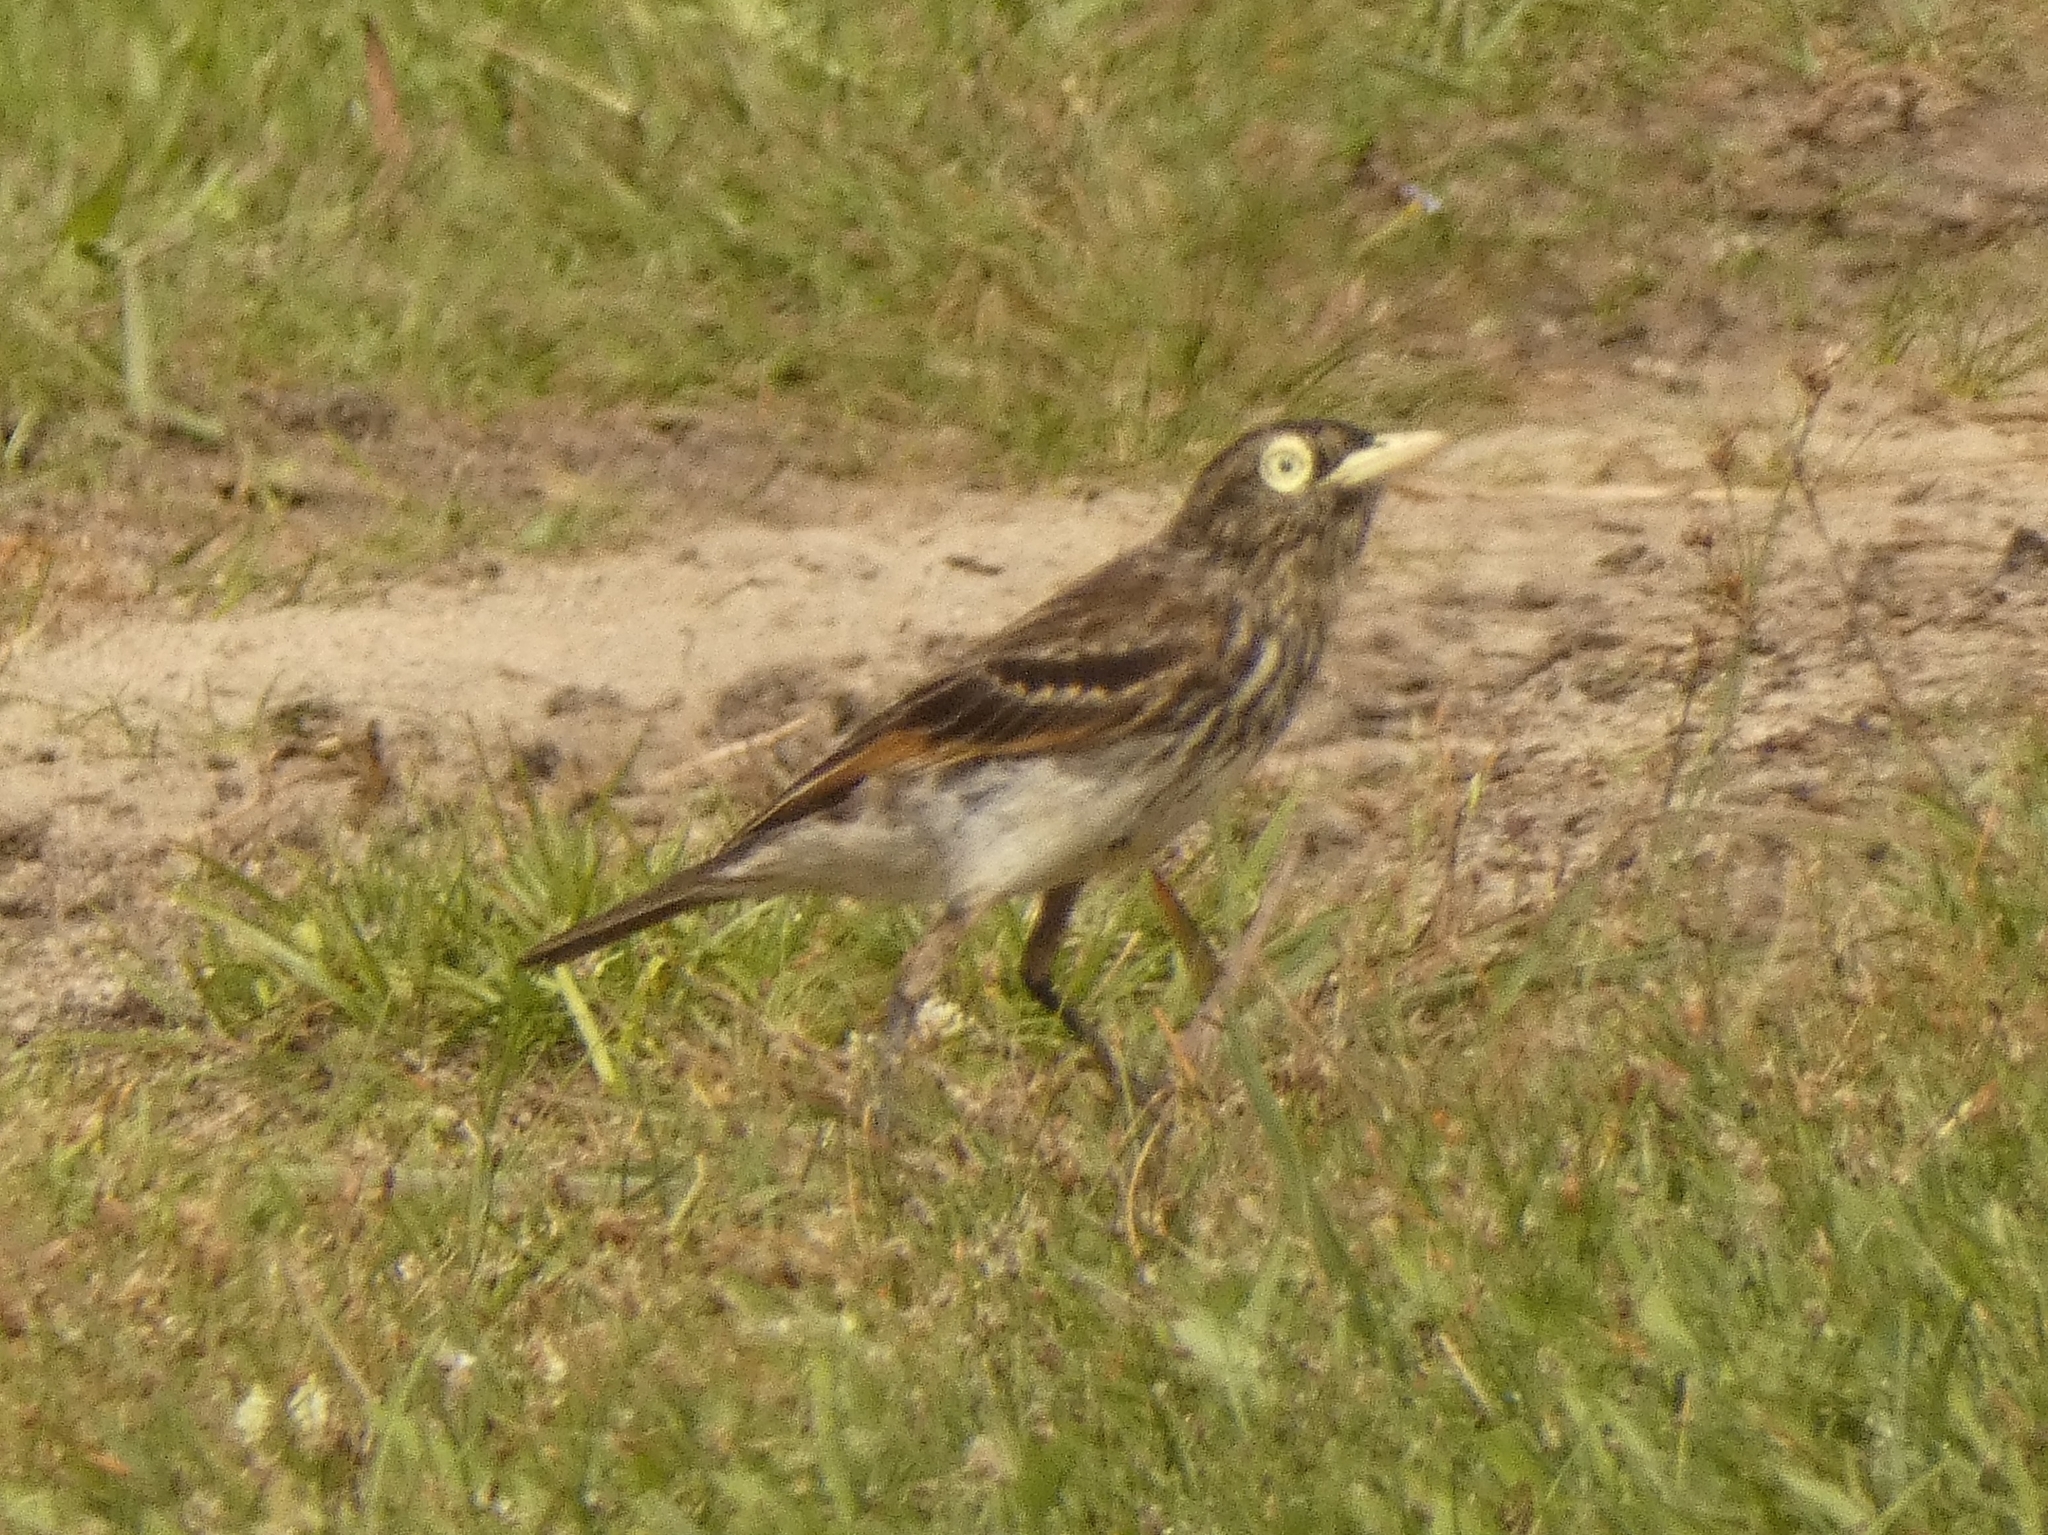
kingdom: Animalia
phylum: Chordata
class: Aves
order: Passeriformes
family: Tyrannidae
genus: Hymenops
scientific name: Hymenops perspicillatus
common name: Spectacled tyrant
